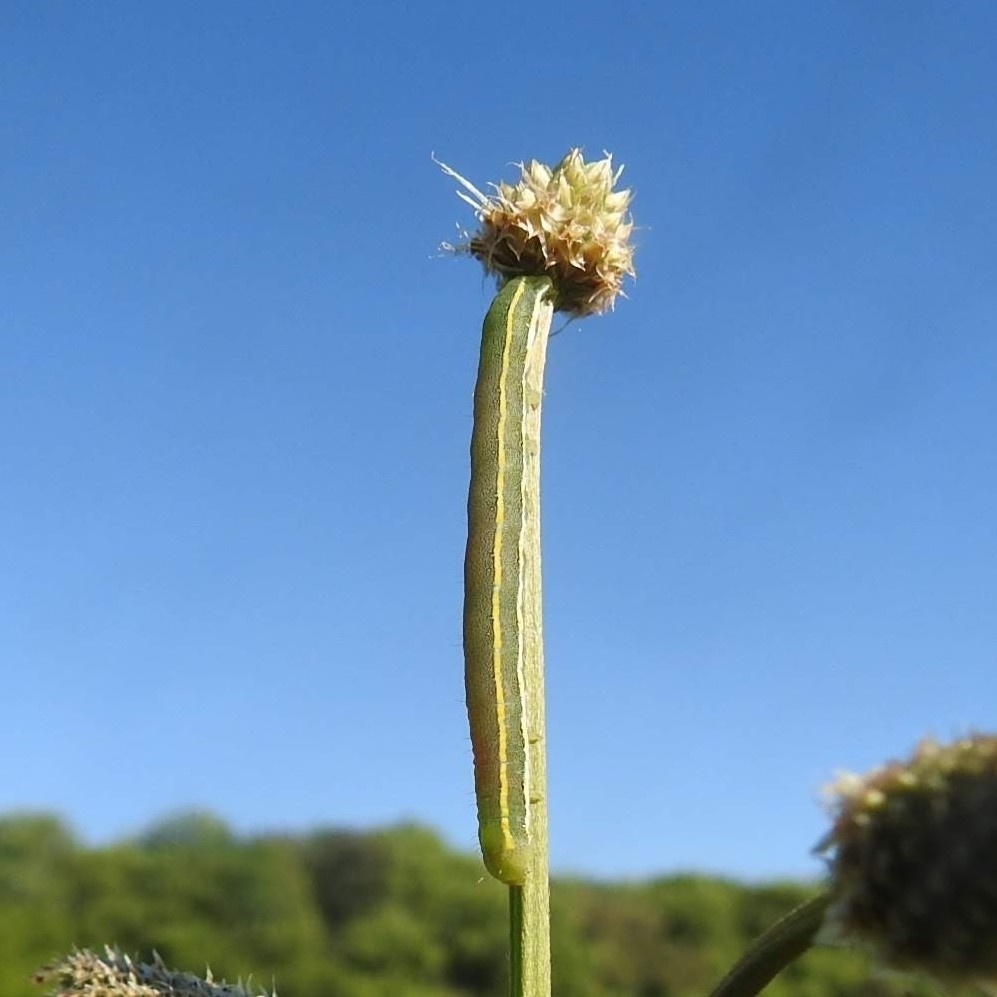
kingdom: Animalia
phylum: Arthropoda
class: Insecta
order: Lepidoptera
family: Noctuidae
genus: Xylena
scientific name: Xylena exsoleta
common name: Sword-grass
